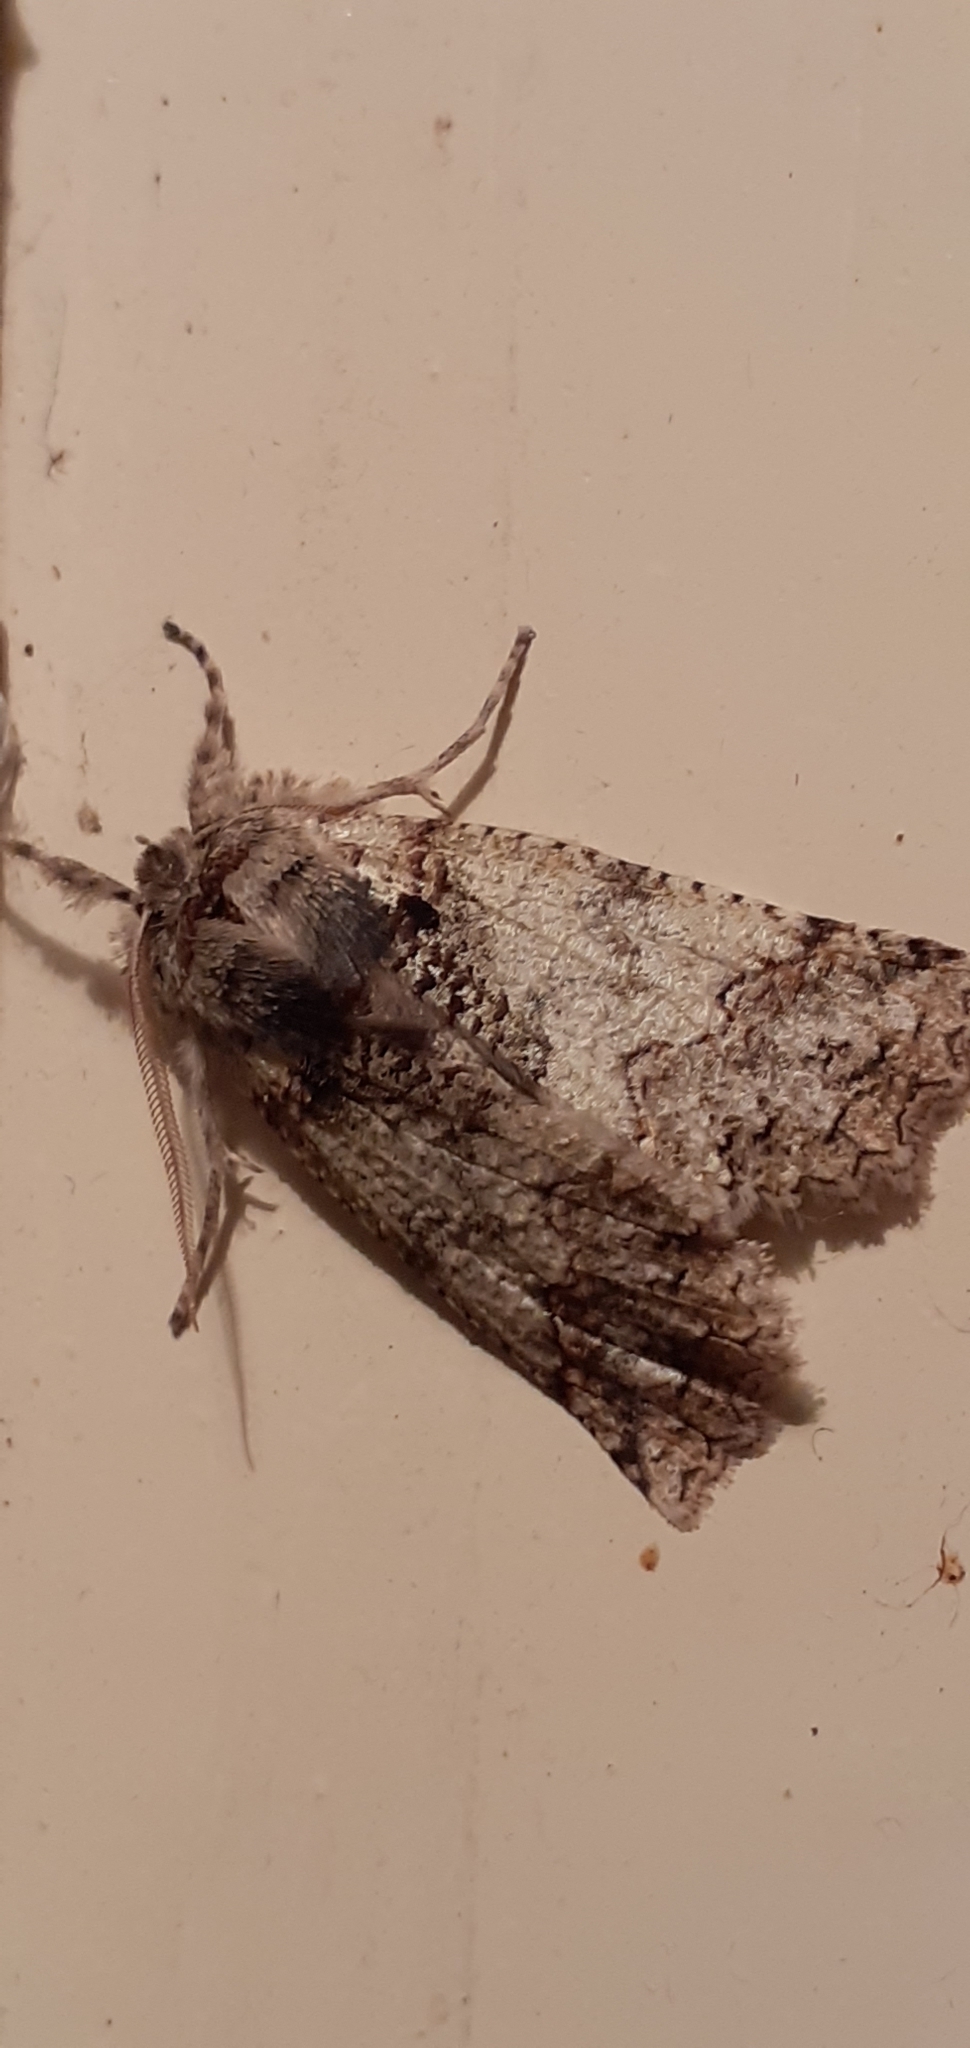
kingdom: Animalia
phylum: Arthropoda
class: Insecta
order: Lepidoptera
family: Geometridae
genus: Declana
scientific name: Declana floccosa
